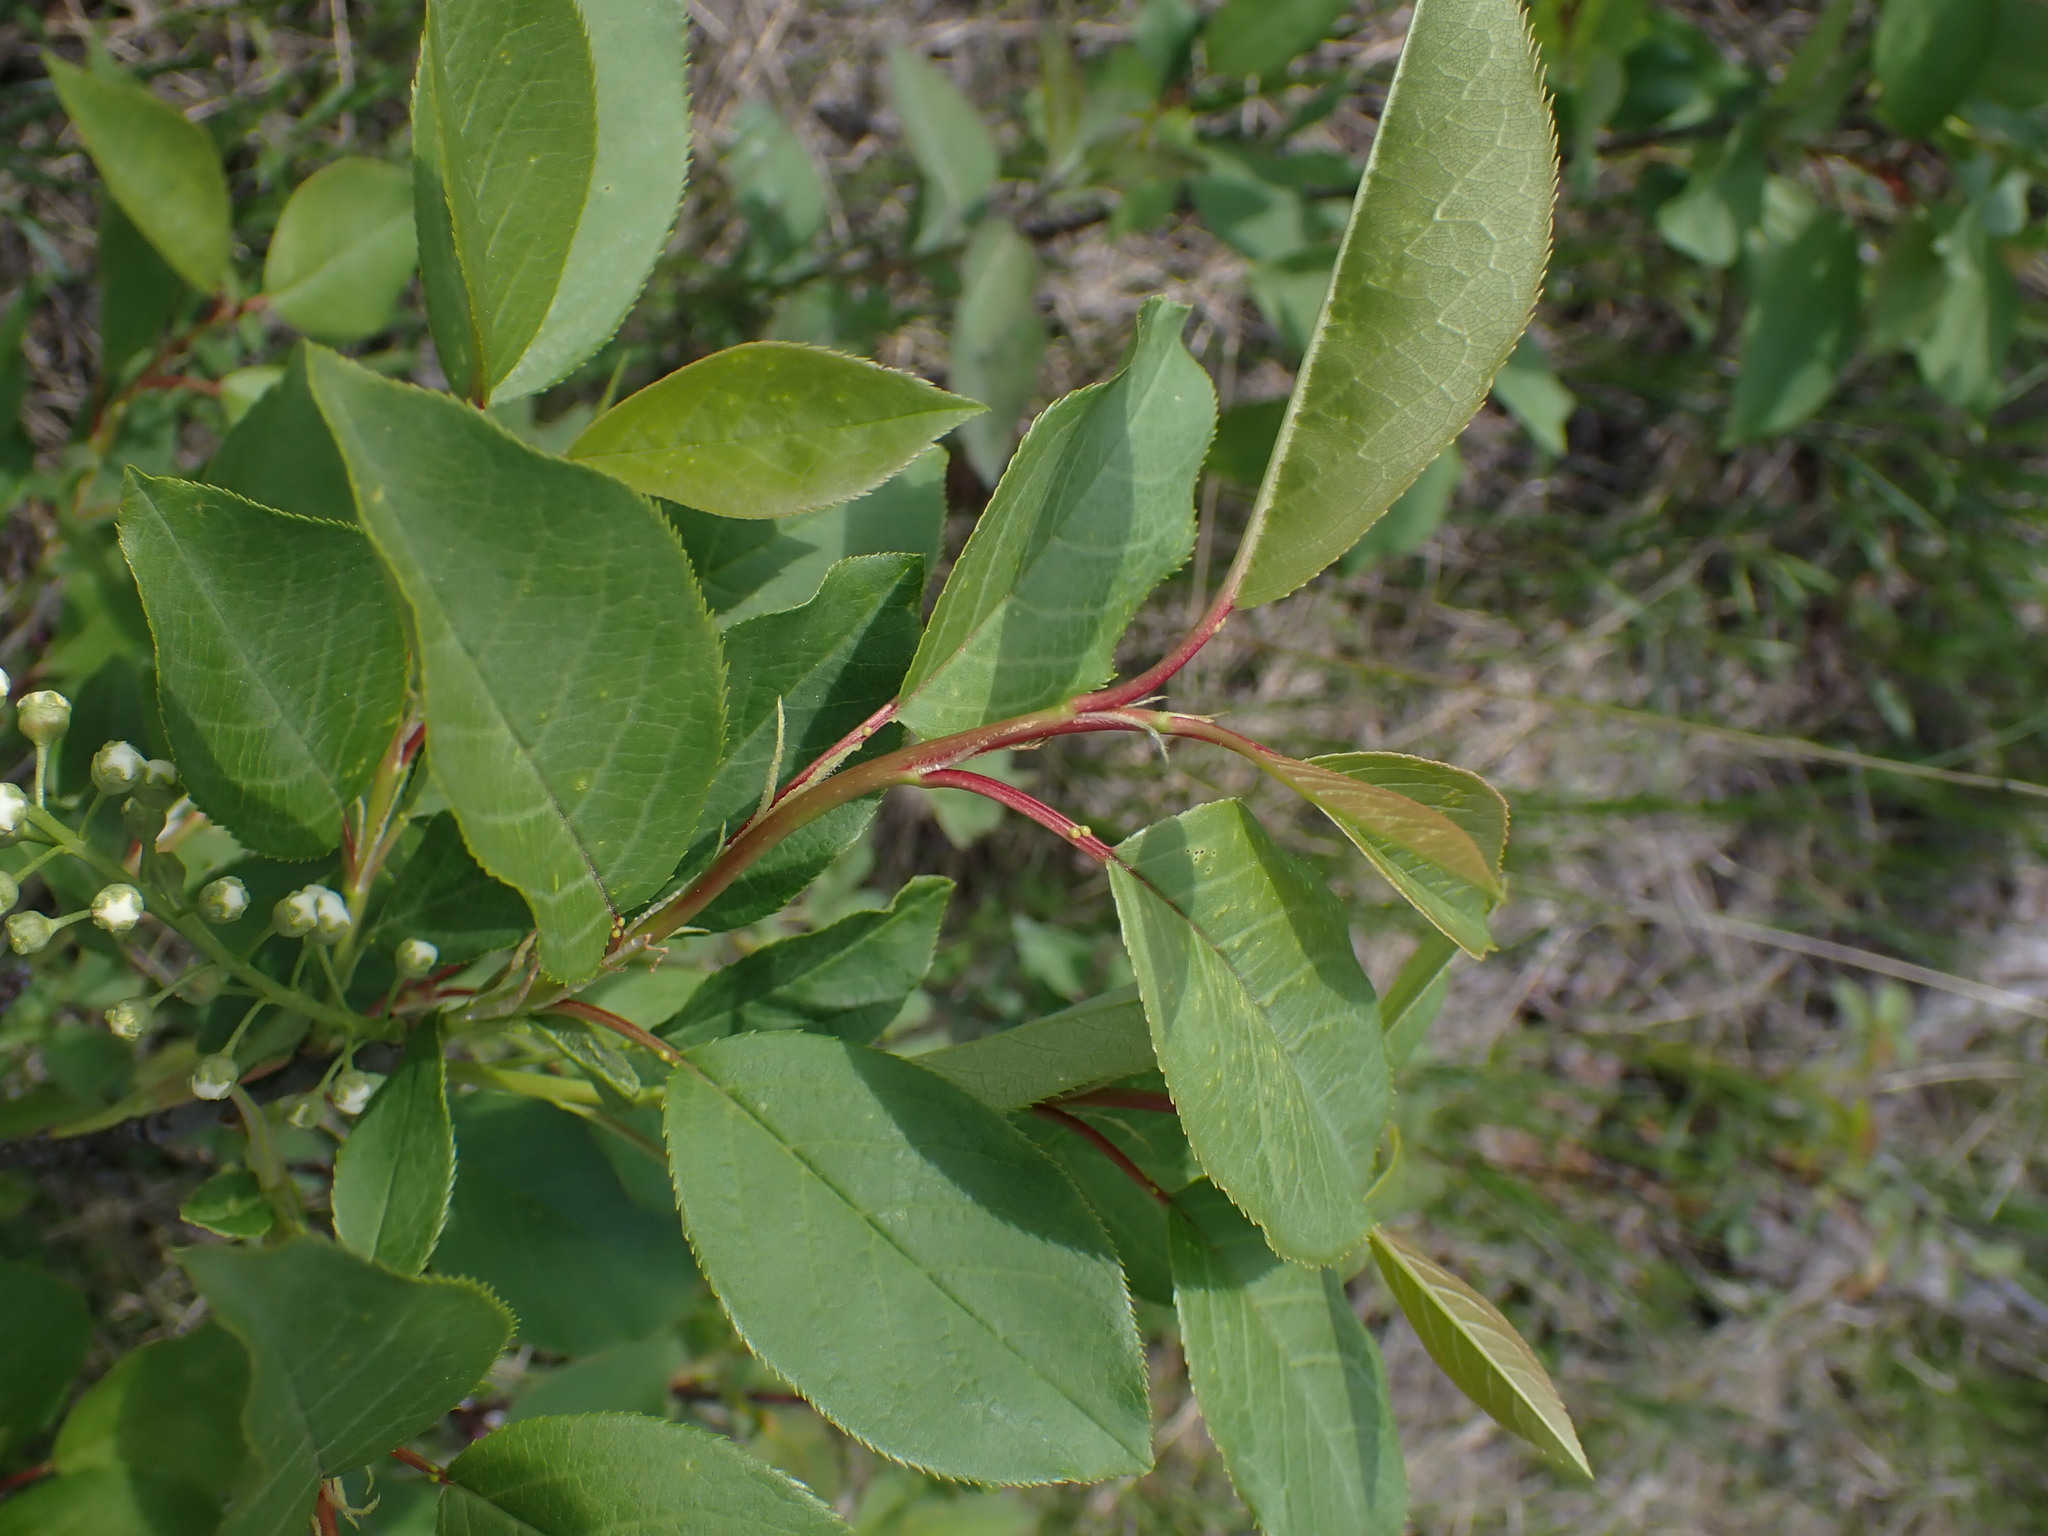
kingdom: Plantae
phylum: Tracheophyta
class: Magnoliopsida
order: Rosales
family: Rosaceae
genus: Prunus
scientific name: Prunus virginiana
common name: Chokecherry
